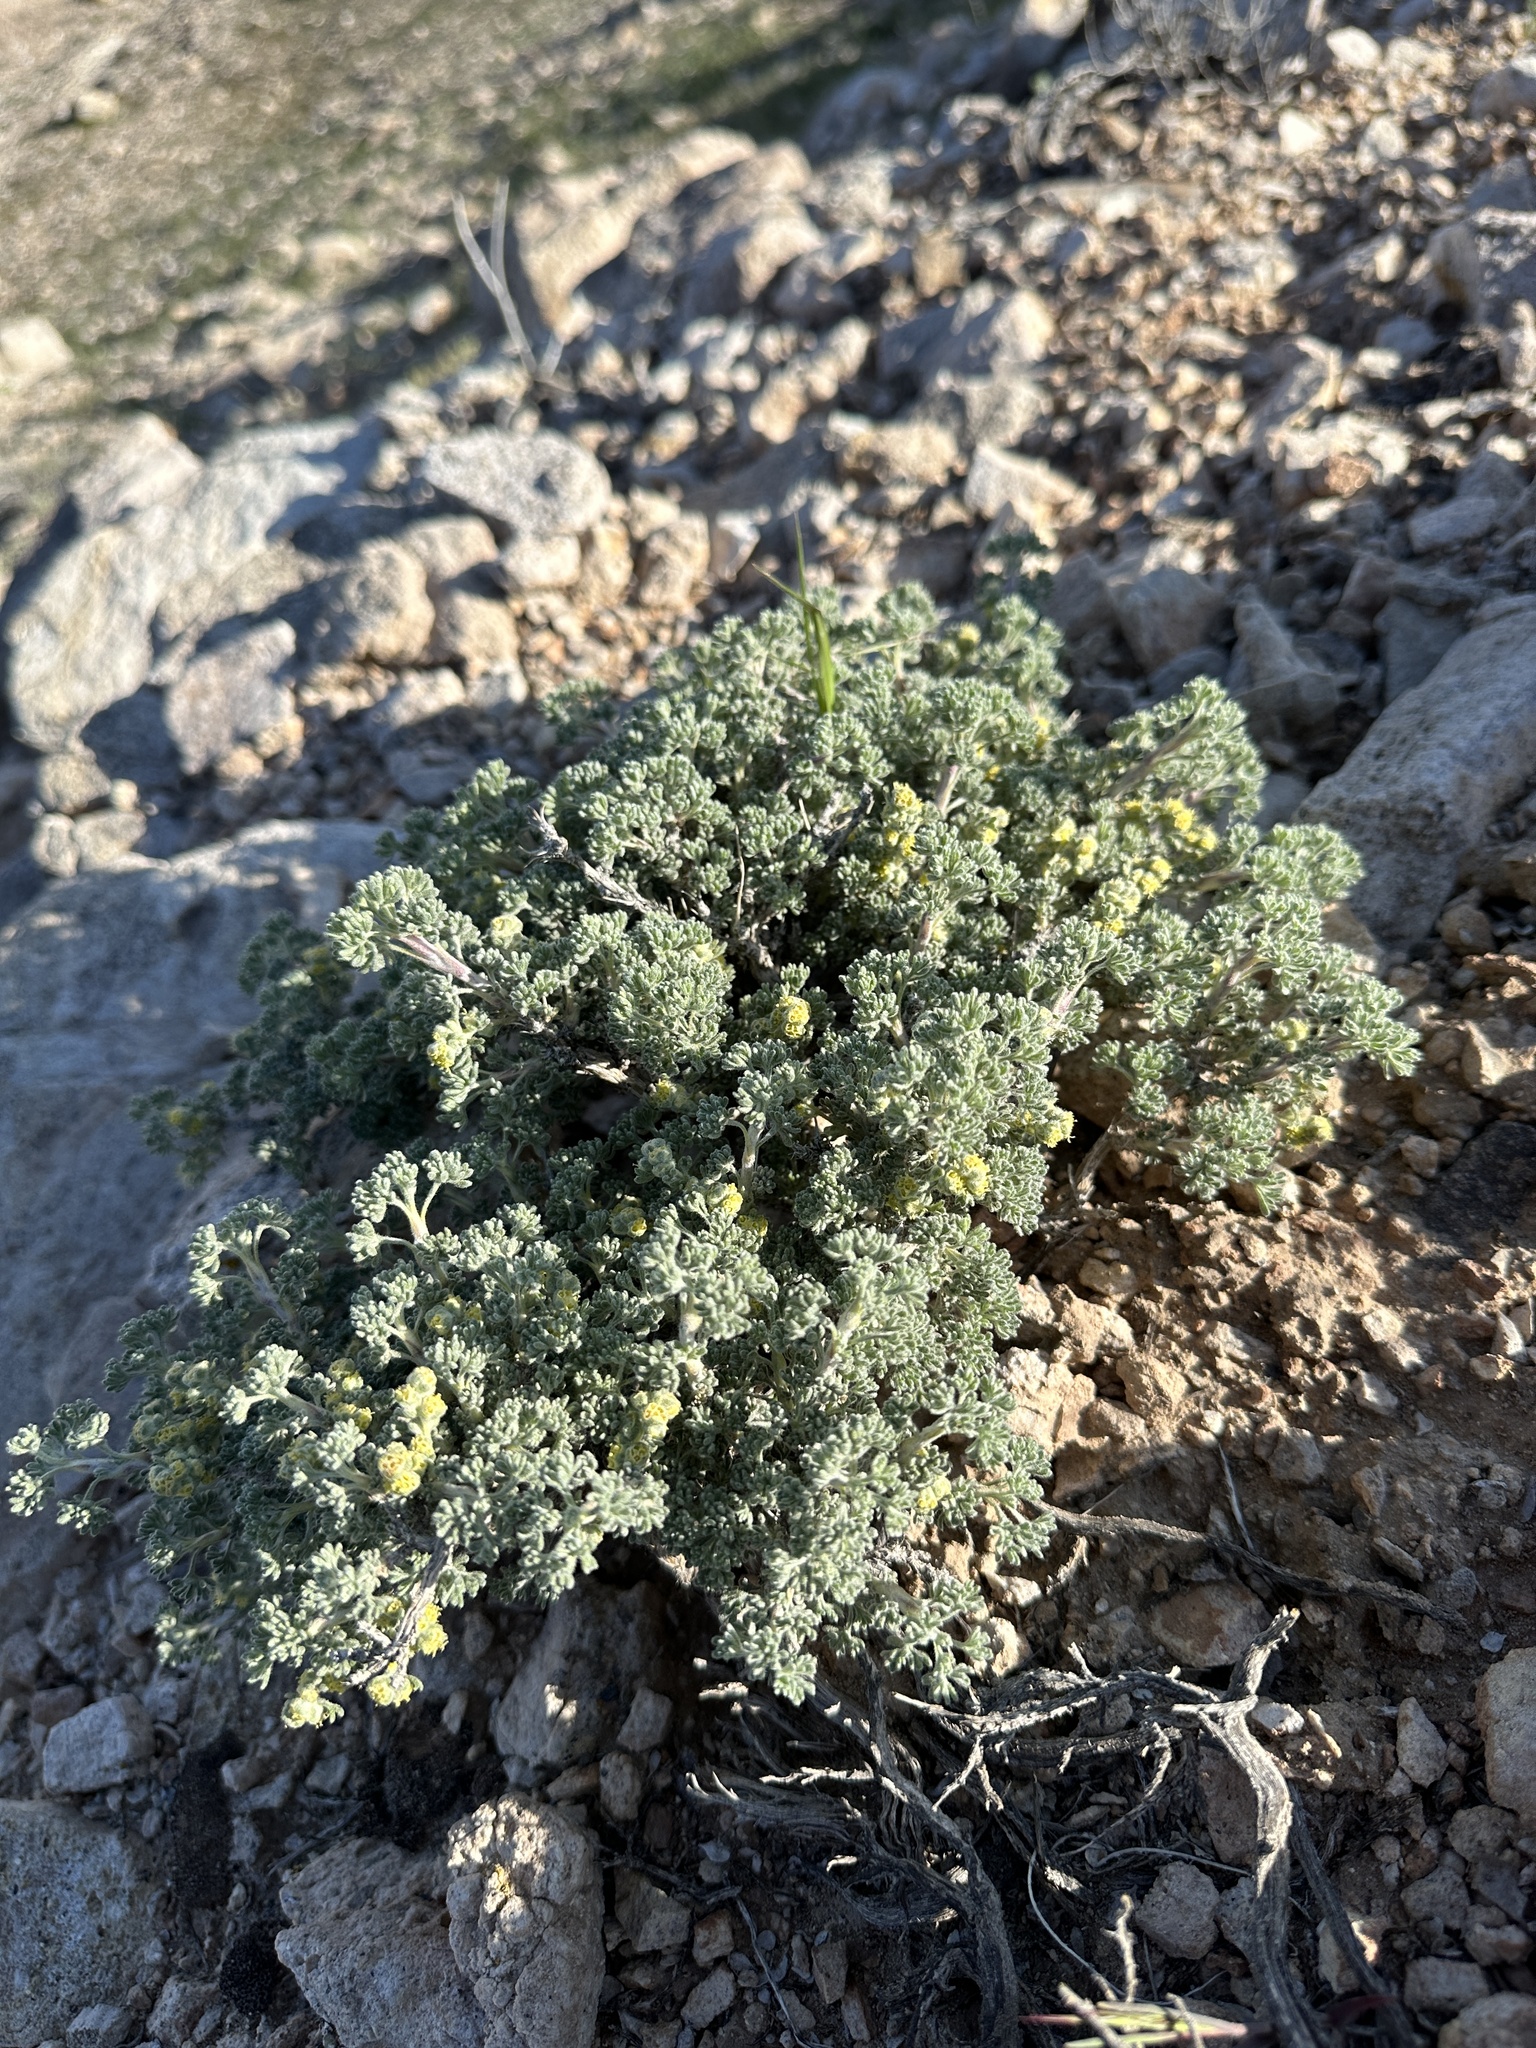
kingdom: Plantae
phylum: Tracheophyta
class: Magnoliopsida
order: Asterales
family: Asteraceae
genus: Artemisia
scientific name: Artemisia spinescens
